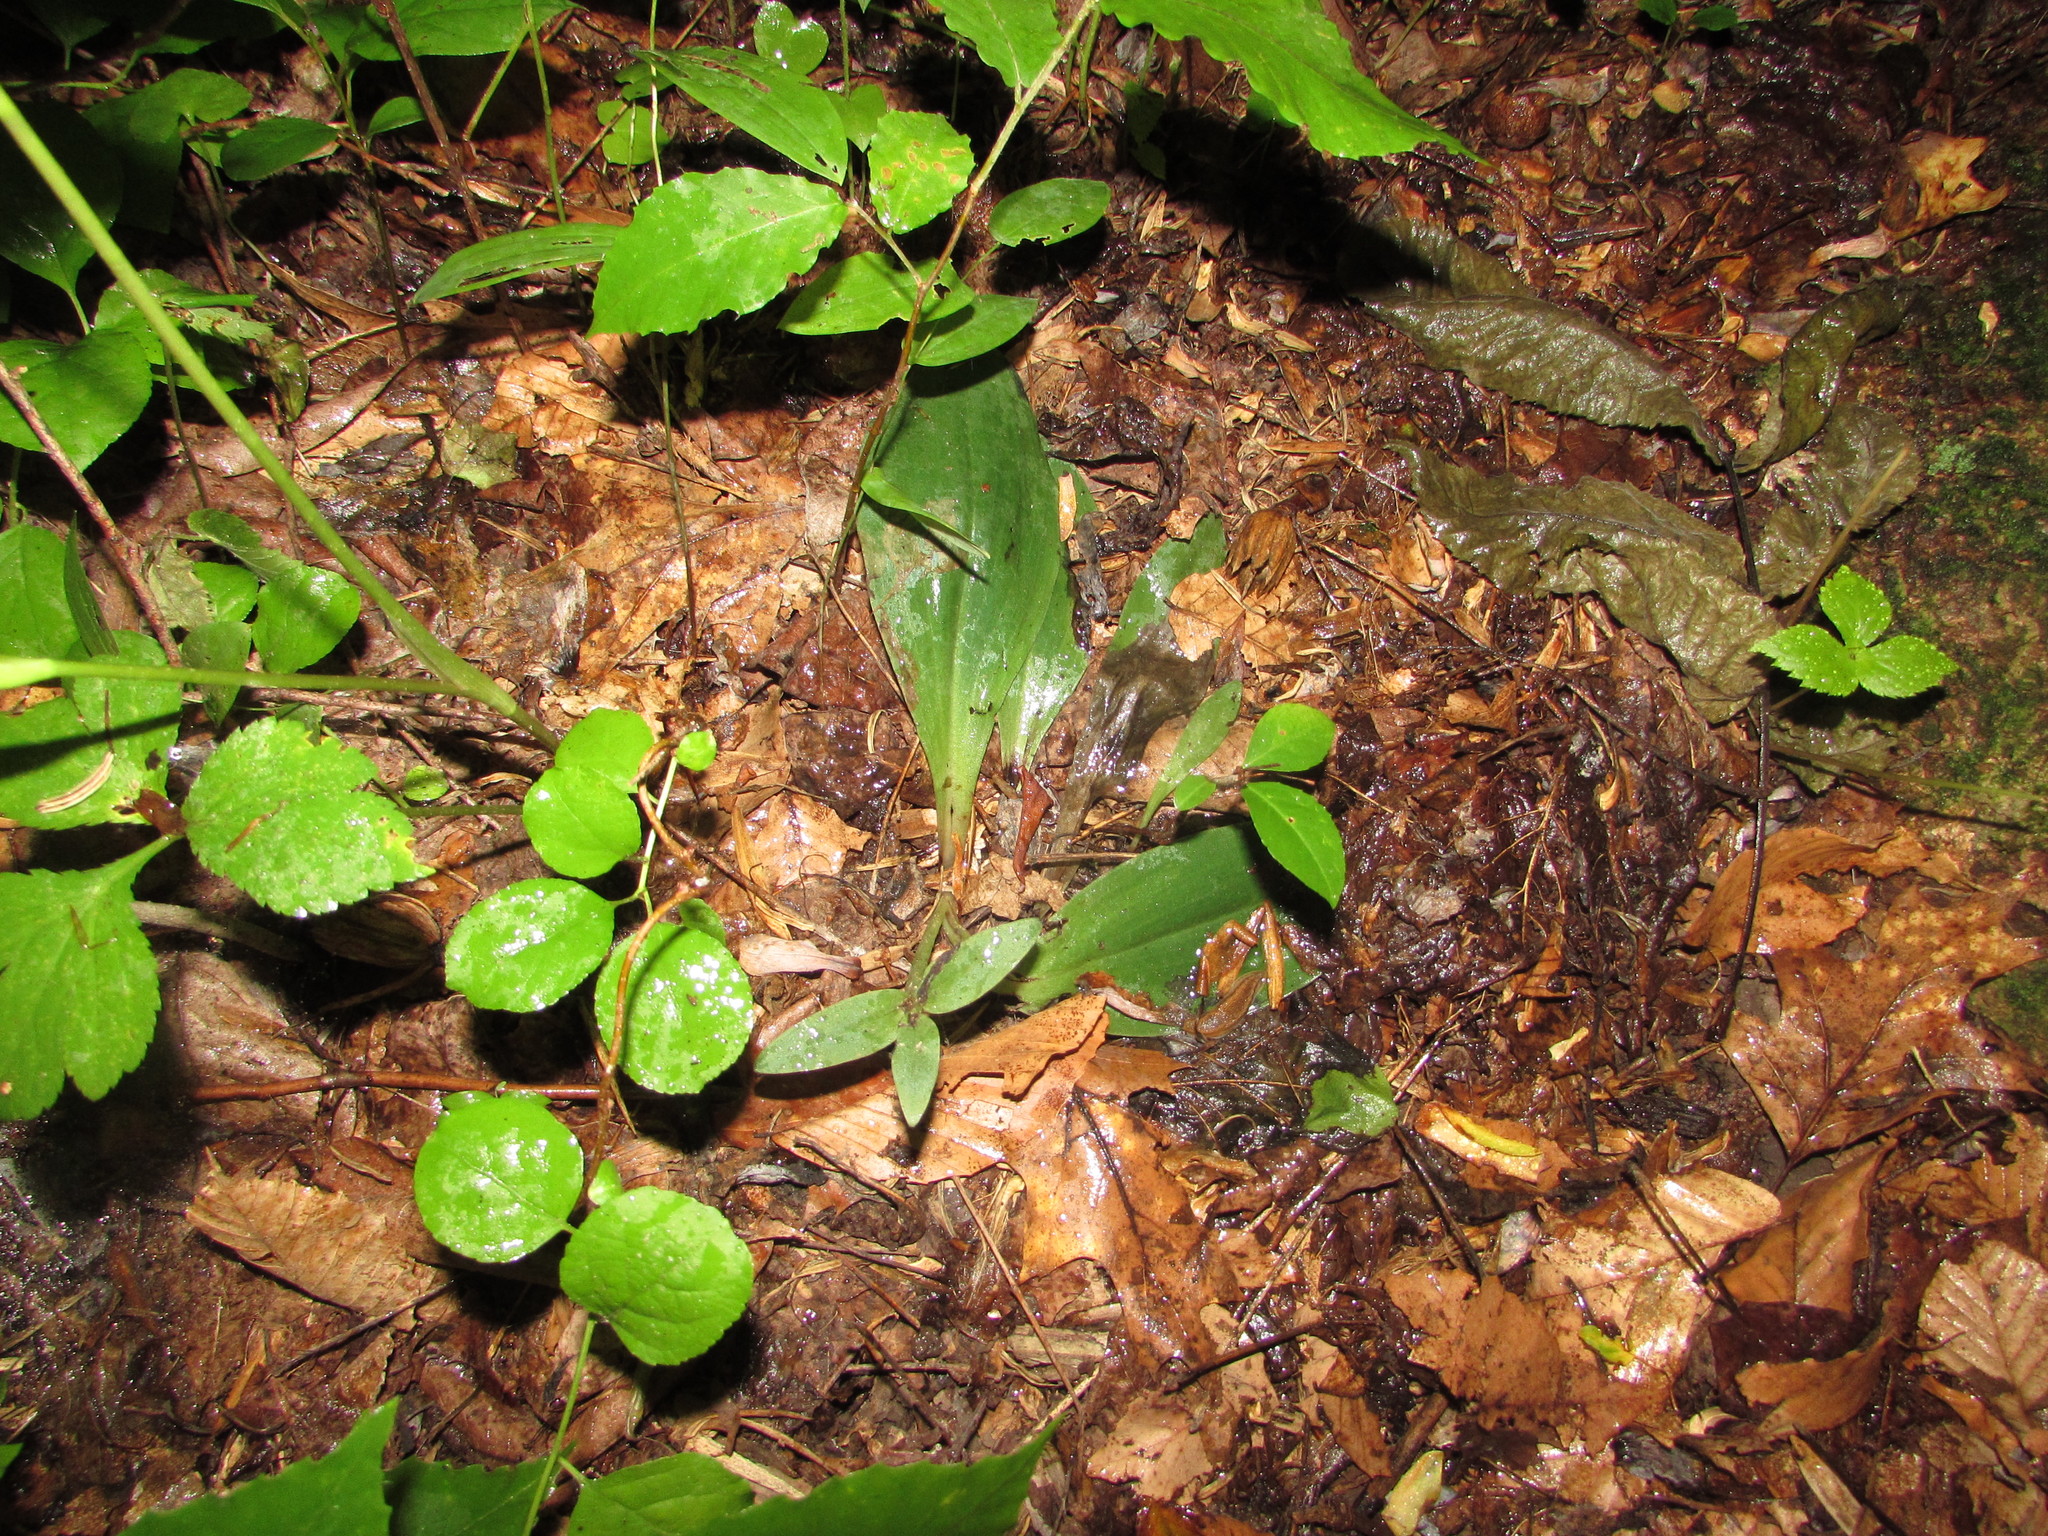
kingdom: Plantae
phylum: Tracheophyta
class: Liliopsida
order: Asparagales
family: Orchidaceae
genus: Galearis
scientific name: Galearis spectabilis
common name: Purple-hooded orchis
